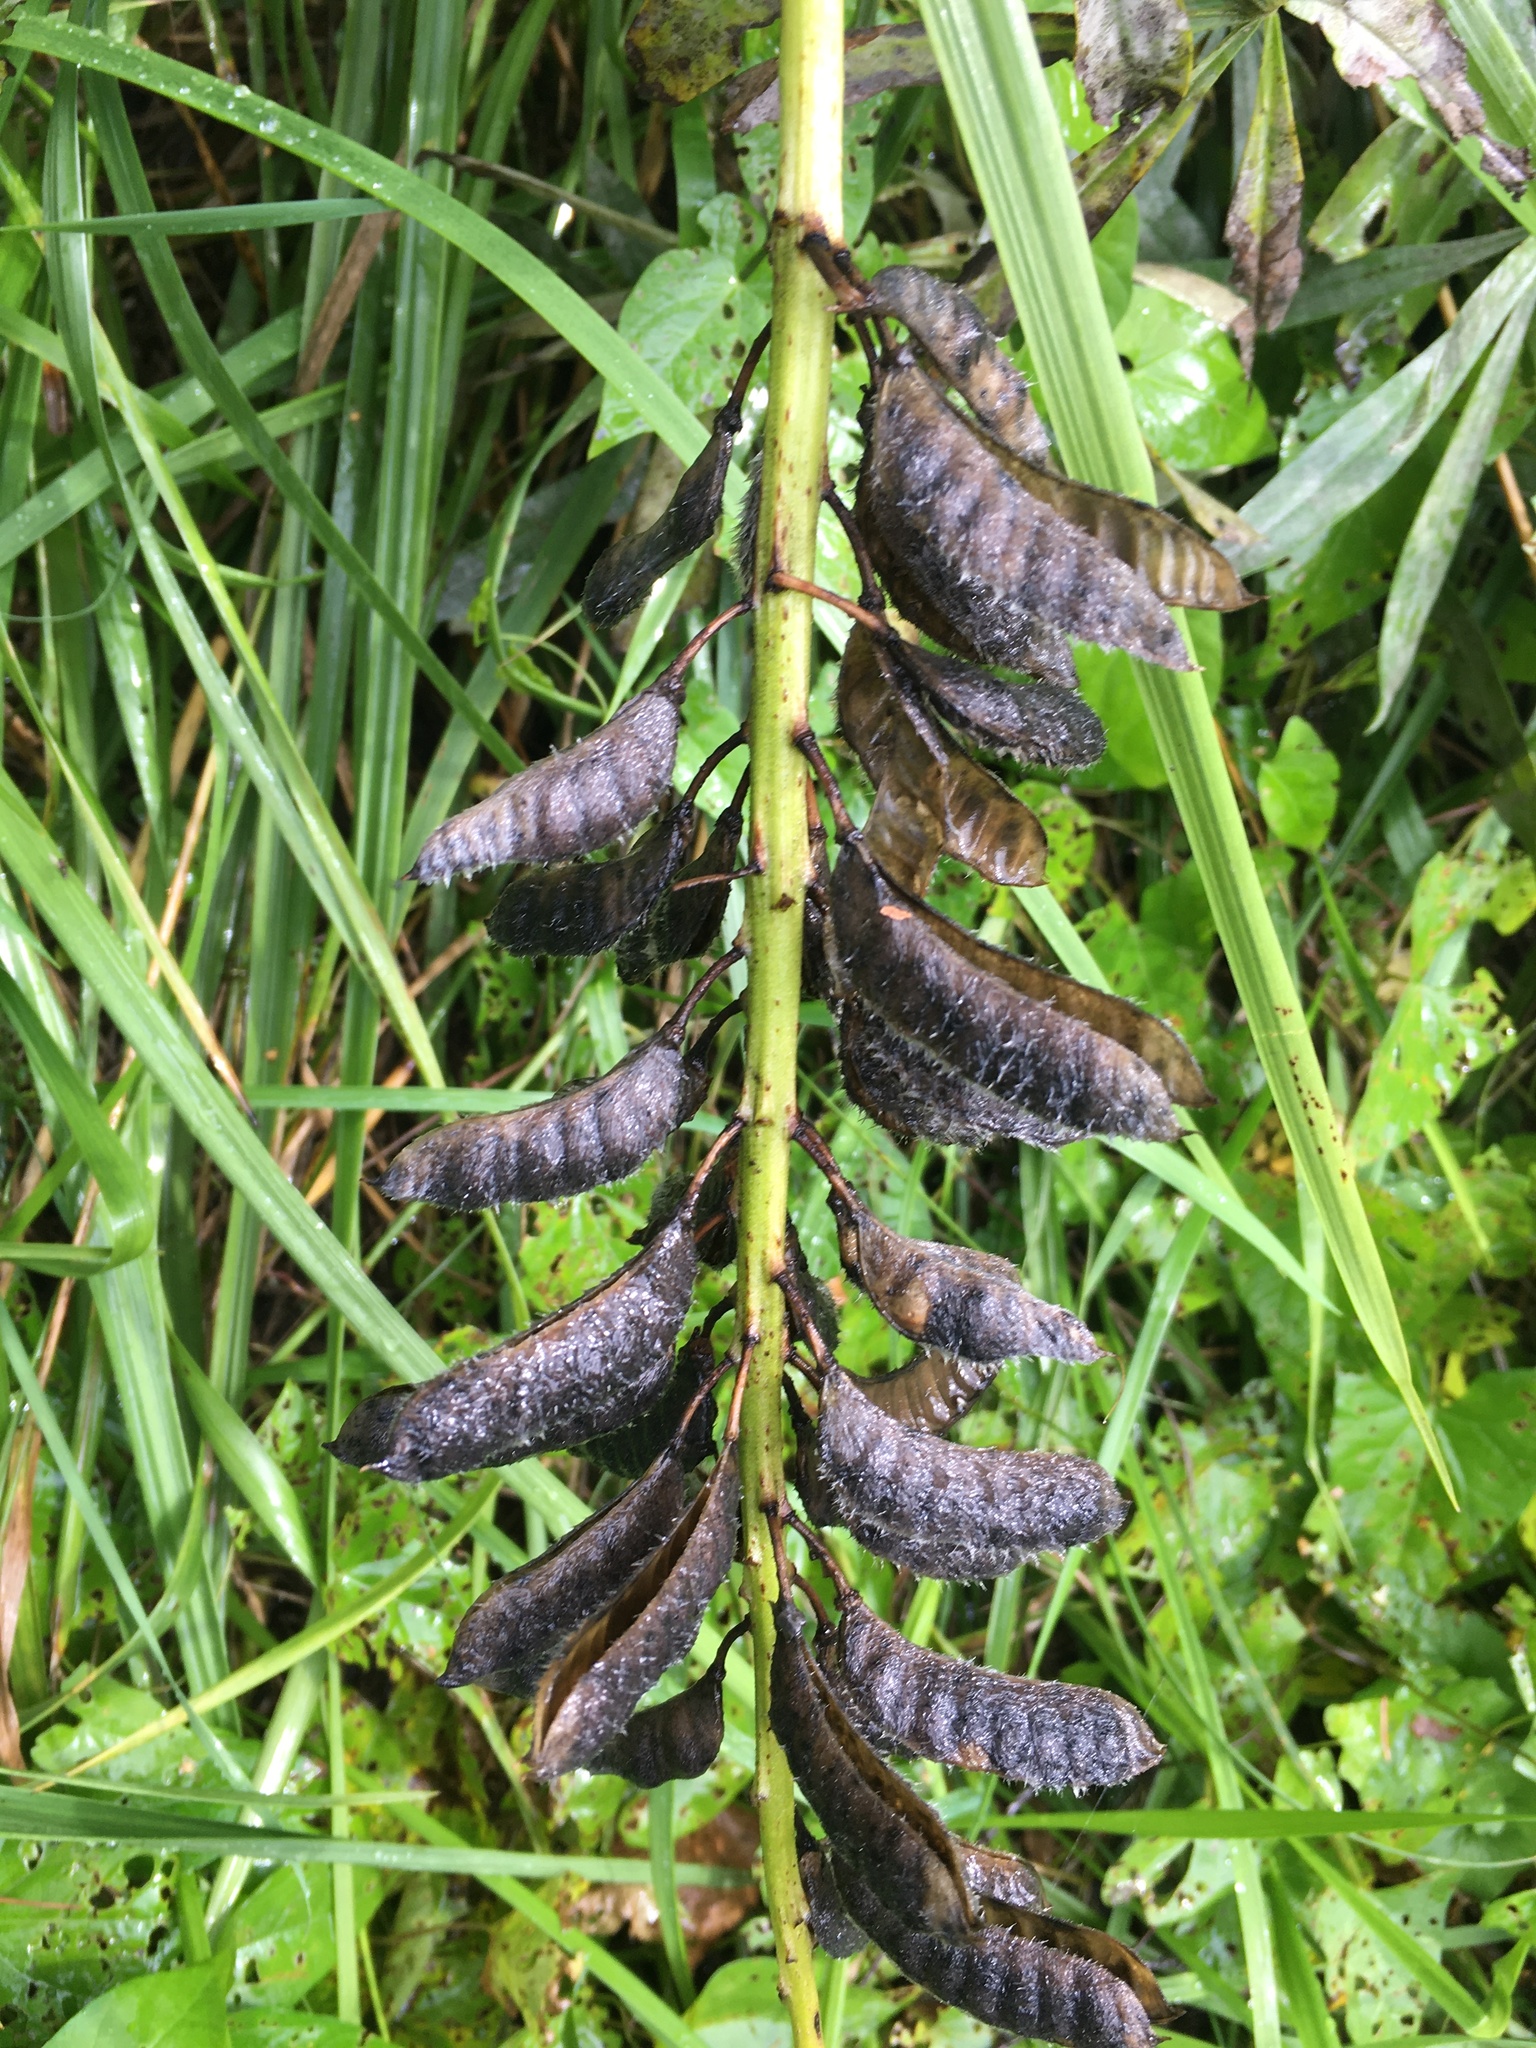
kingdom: Plantae
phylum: Tracheophyta
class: Magnoliopsida
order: Fabales
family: Fabaceae
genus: Lupinus
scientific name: Lupinus polyphyllus
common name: Garden lupin
